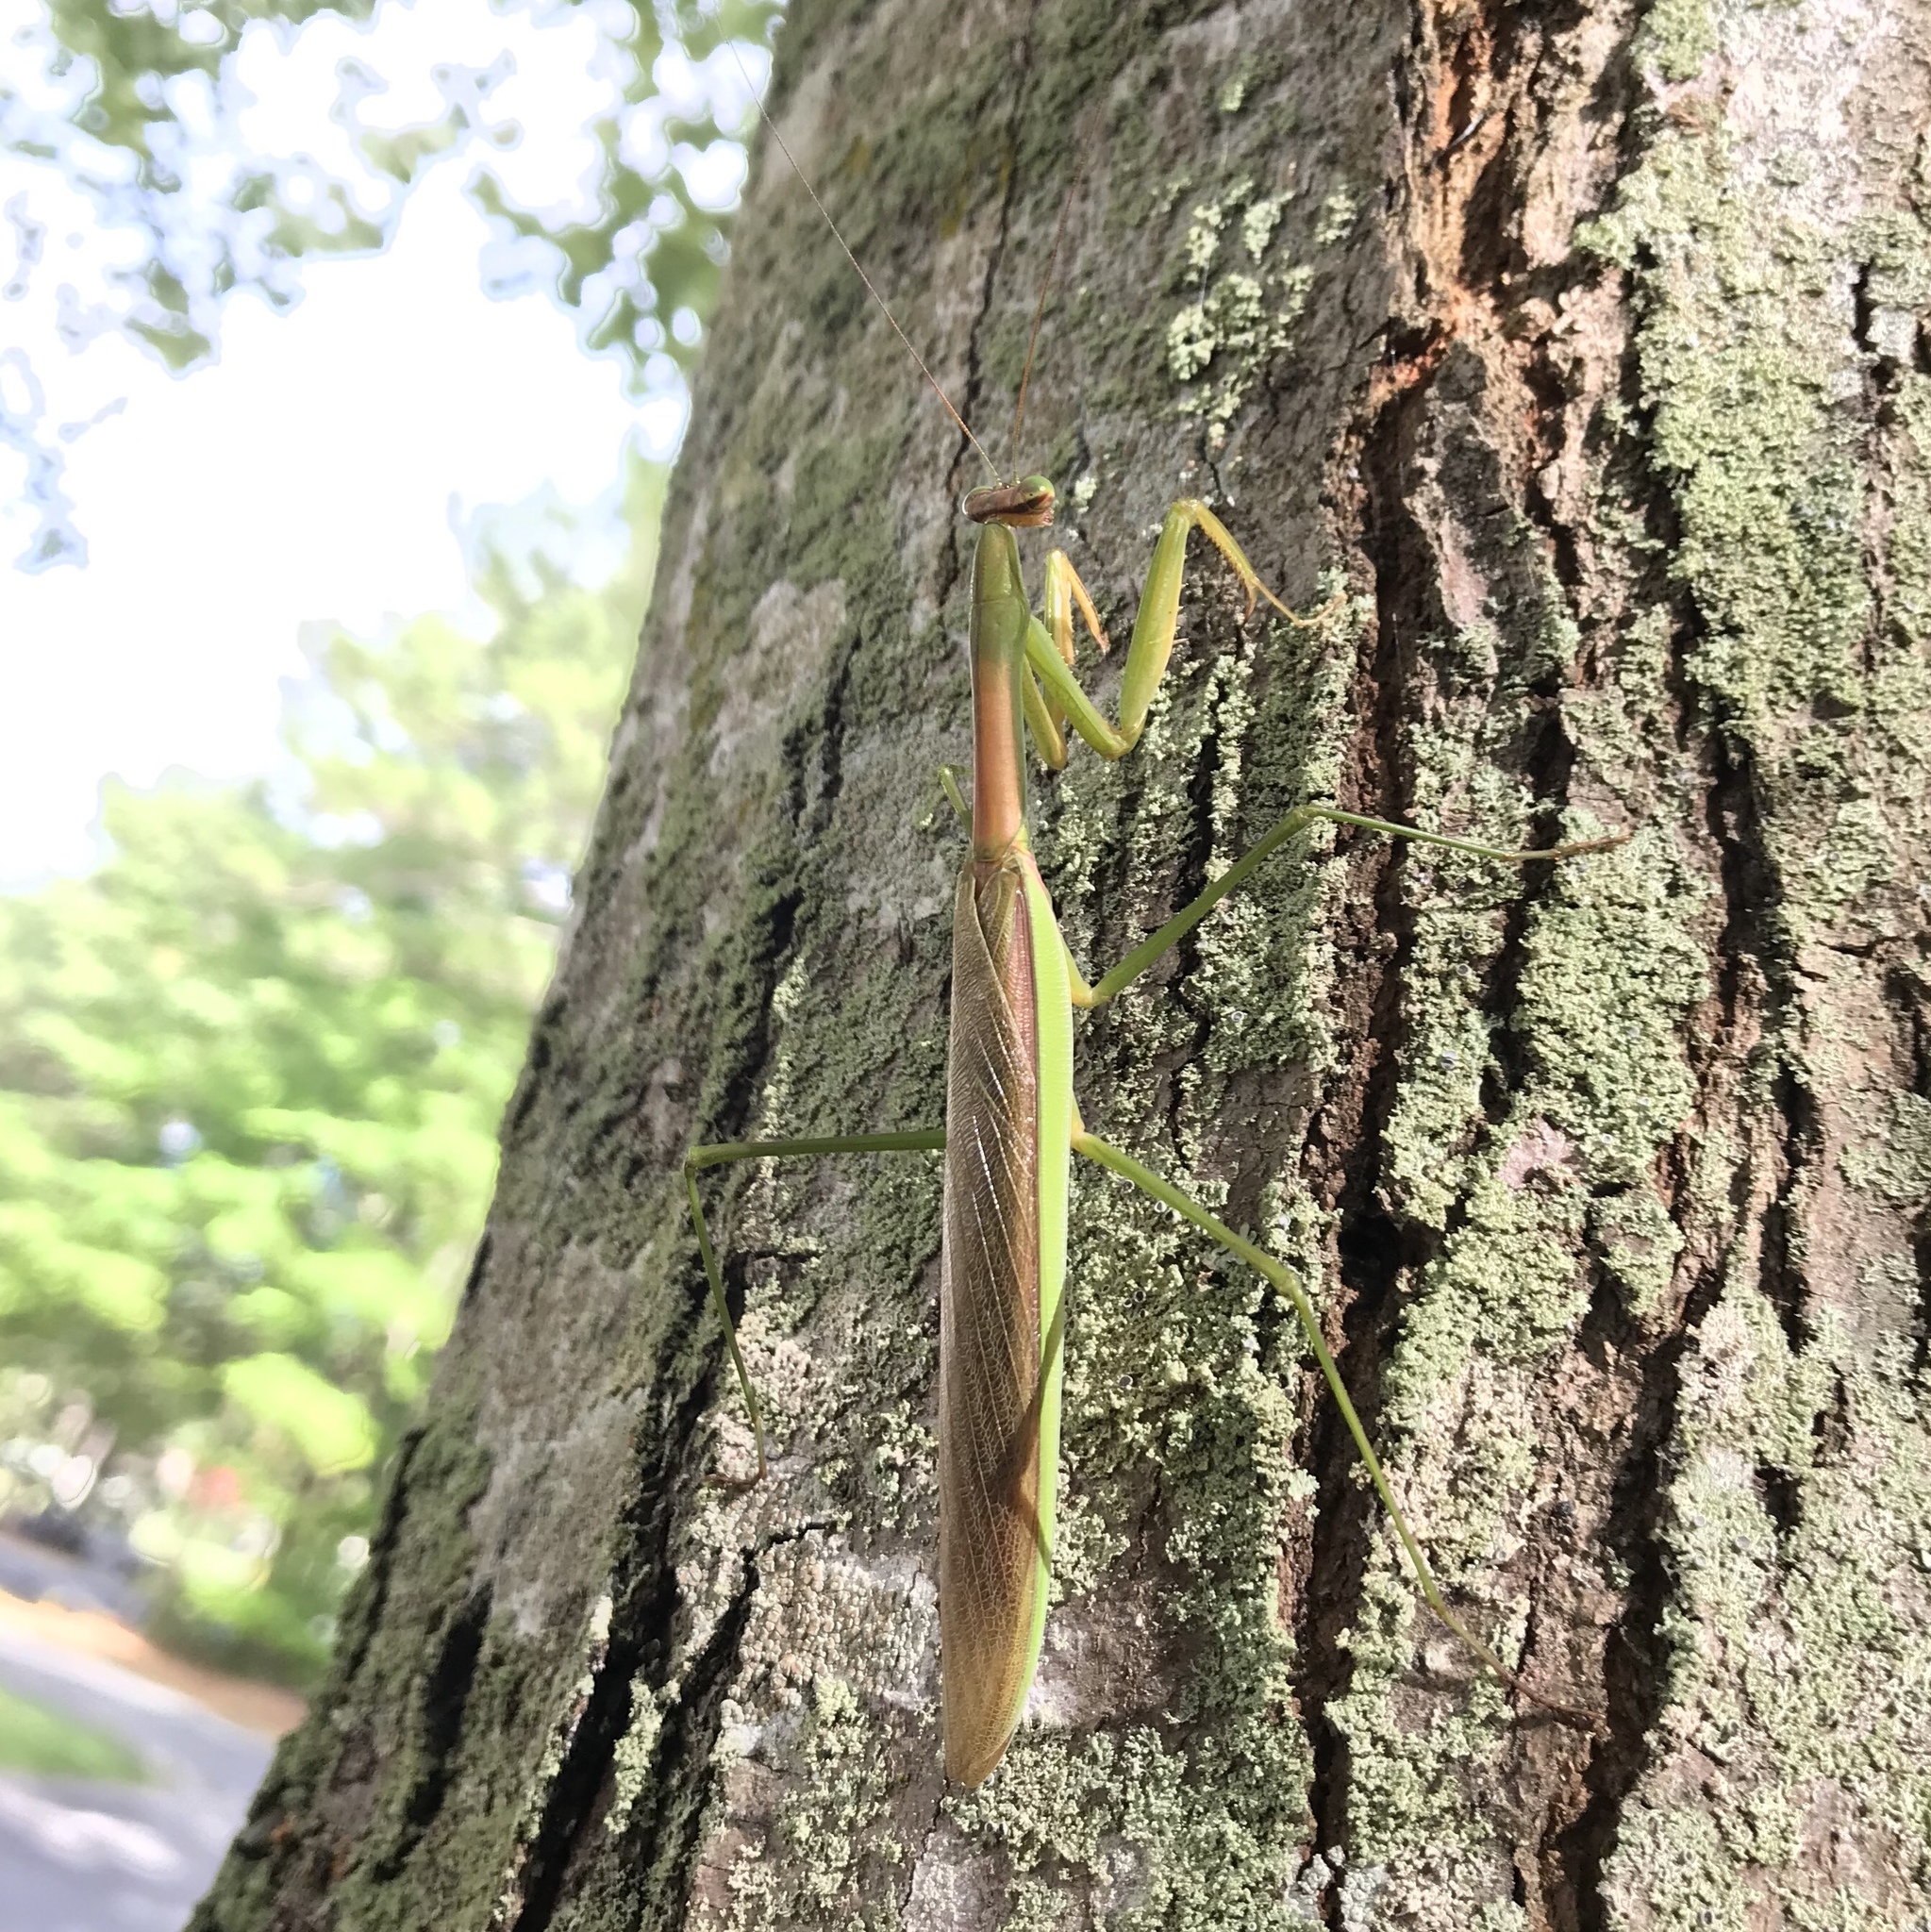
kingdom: Animalia
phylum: Arthropoda
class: Insecta
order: Mantodea
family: Mantidae
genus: Tenodera
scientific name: Tenodera sinensis
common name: Chinese mantis
